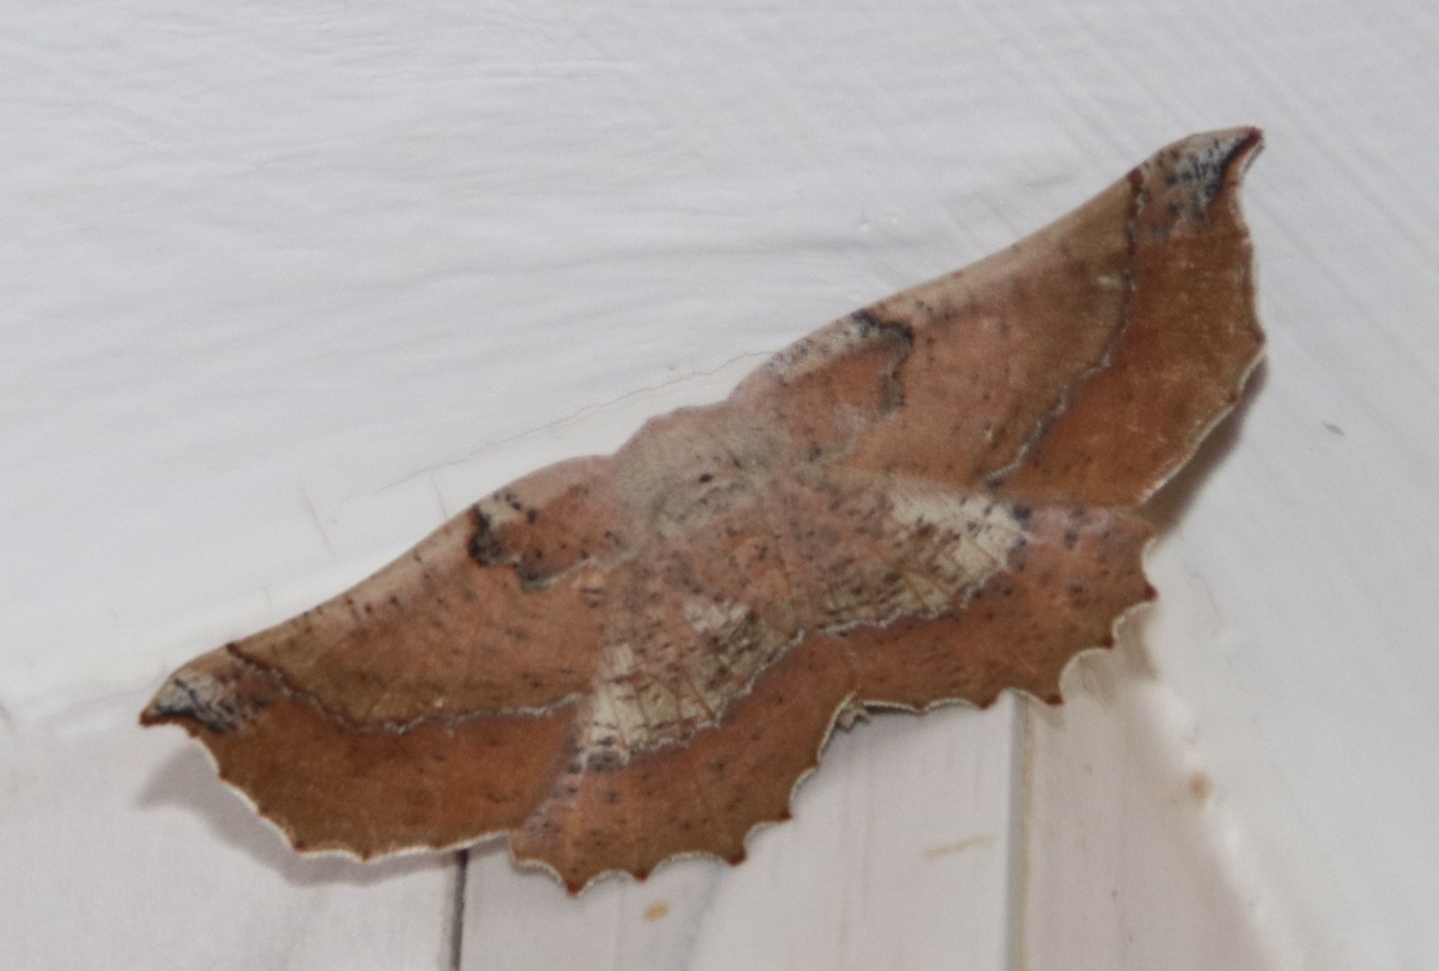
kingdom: Animalia
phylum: Arthropoda
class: Insecta
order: Lepidoptera
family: Geometridae
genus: Drepanogynis
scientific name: Drepanogynis mixtaria
